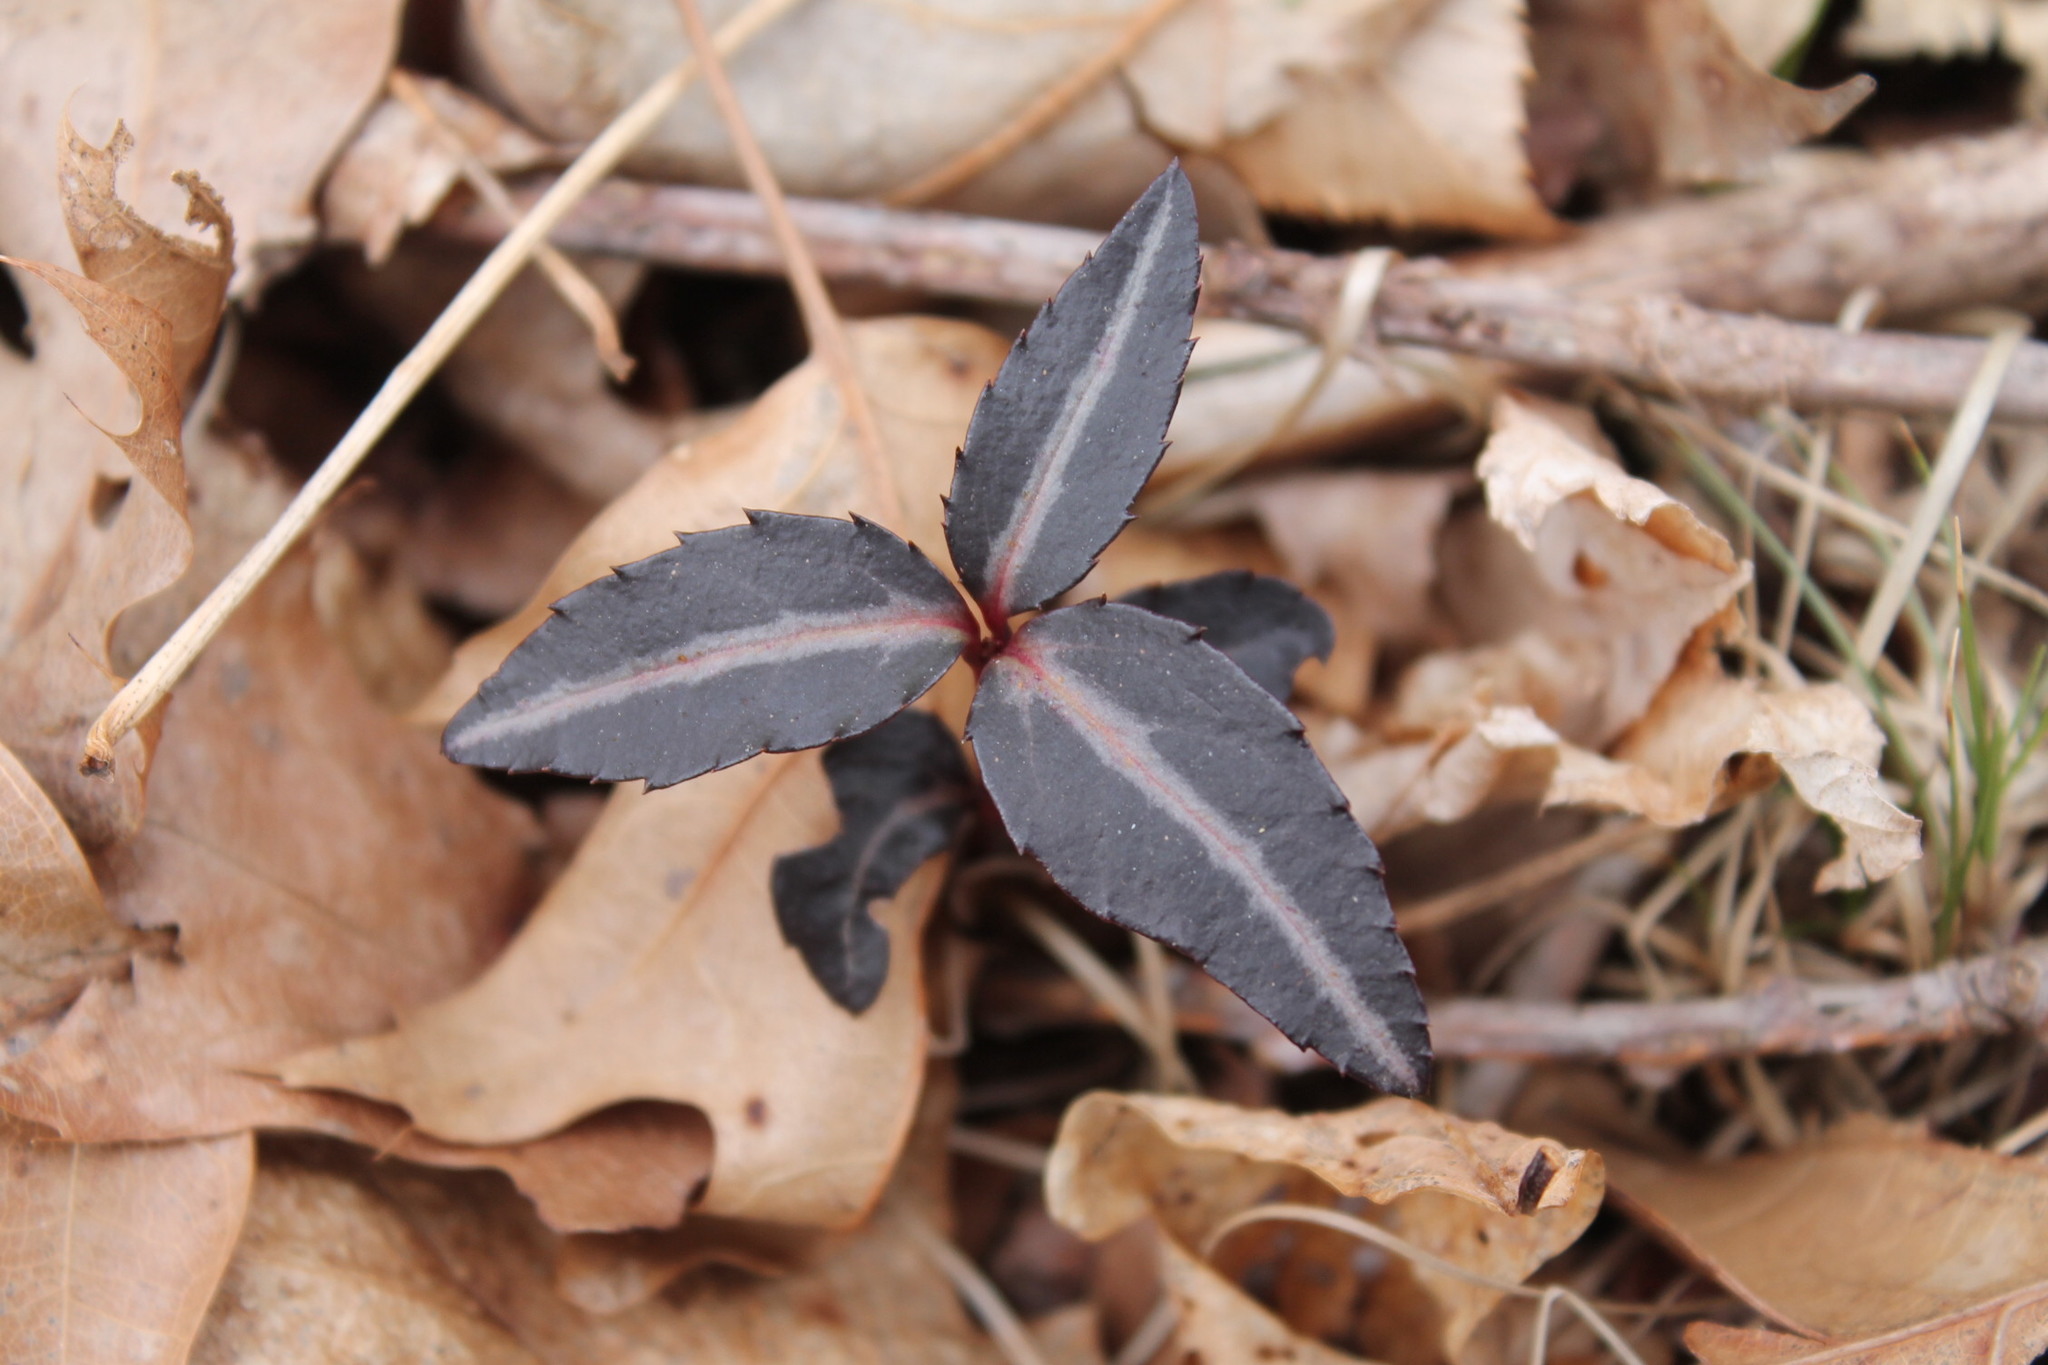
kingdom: Plantae
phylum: Tracheophyta
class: Magnoliopsida
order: Ericales
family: Ericaceae
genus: Chimaphila
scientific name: Chimaphila maculata
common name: Spotted pipsissewa
